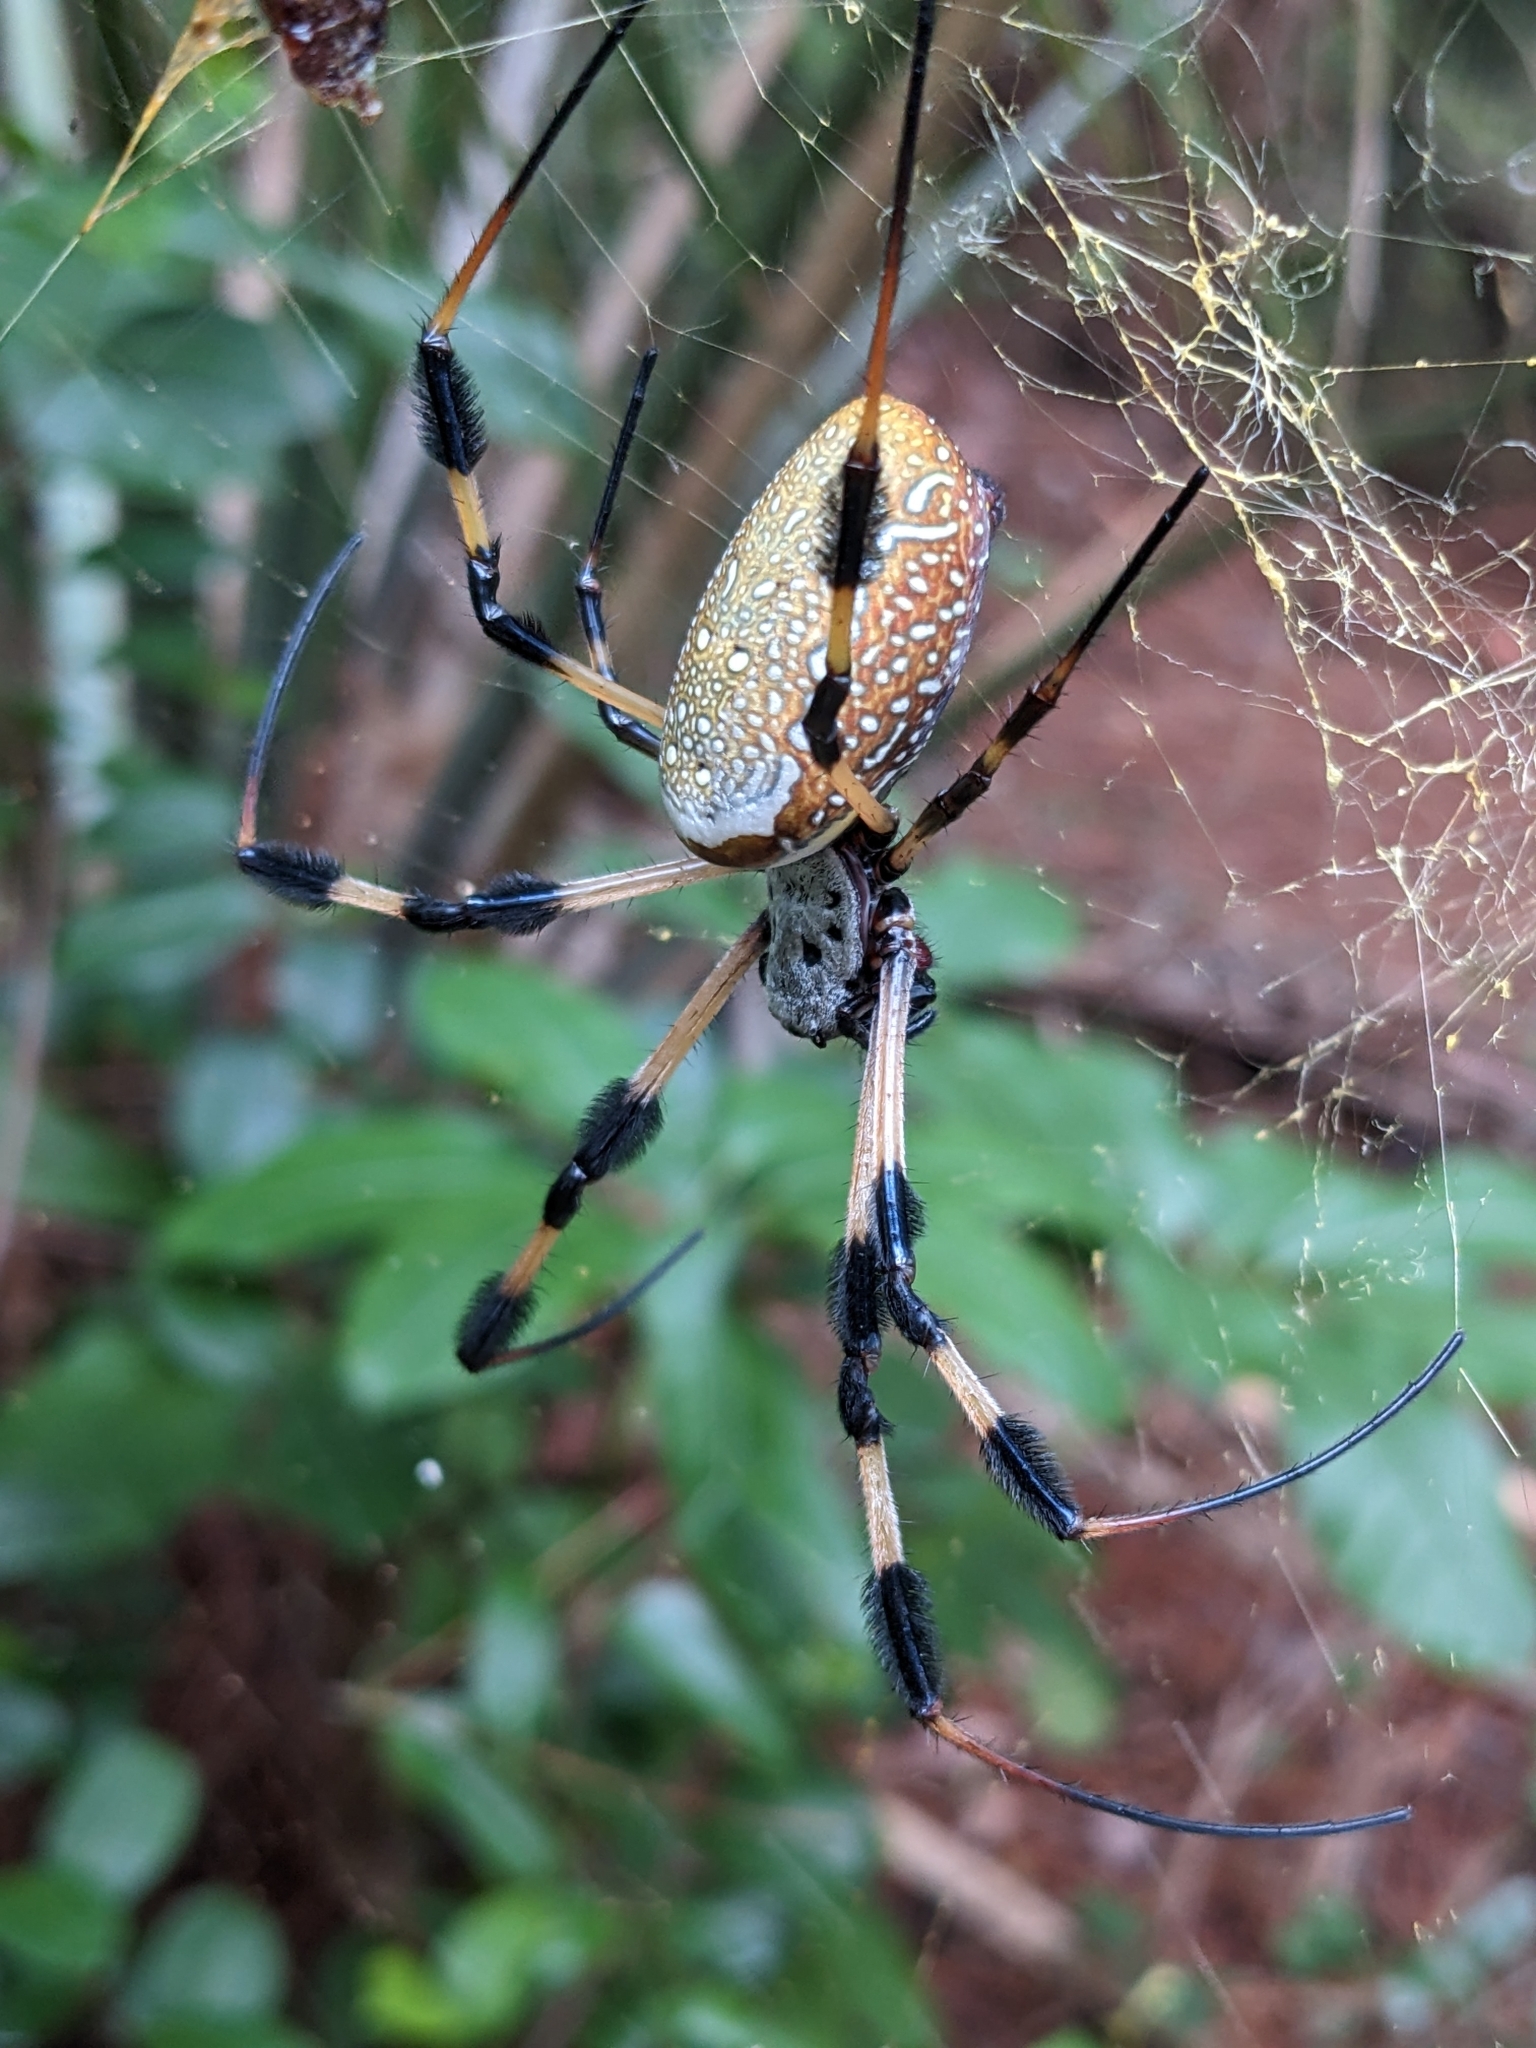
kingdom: Animalia
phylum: Arthropoda
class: Arachnida
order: Araneae
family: Araneidae
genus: Trichonephila
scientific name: Trichonephila clavipes
